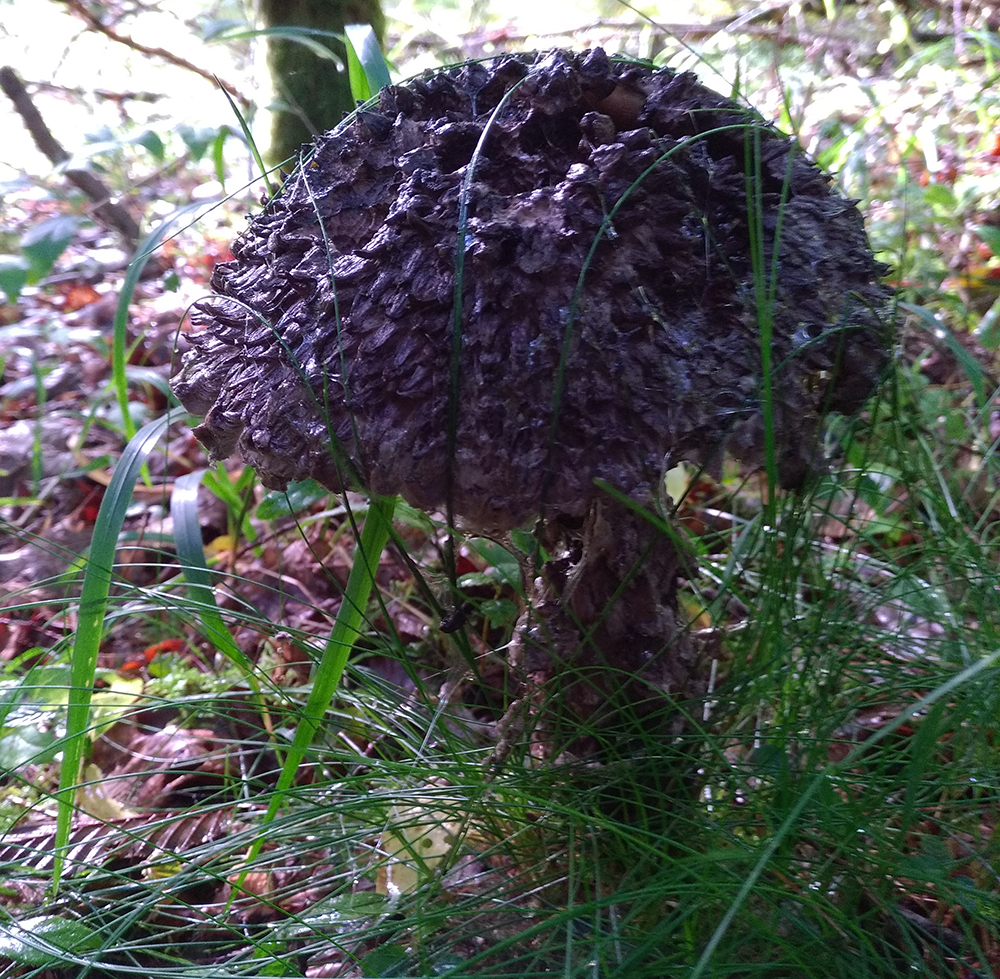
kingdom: Fungi
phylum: Basidiomycota
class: Agaricomycetes
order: Boletales
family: Boletaceae
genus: Strobilomyces
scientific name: Strobilomyces strobilaceus
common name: Old man of the woods
